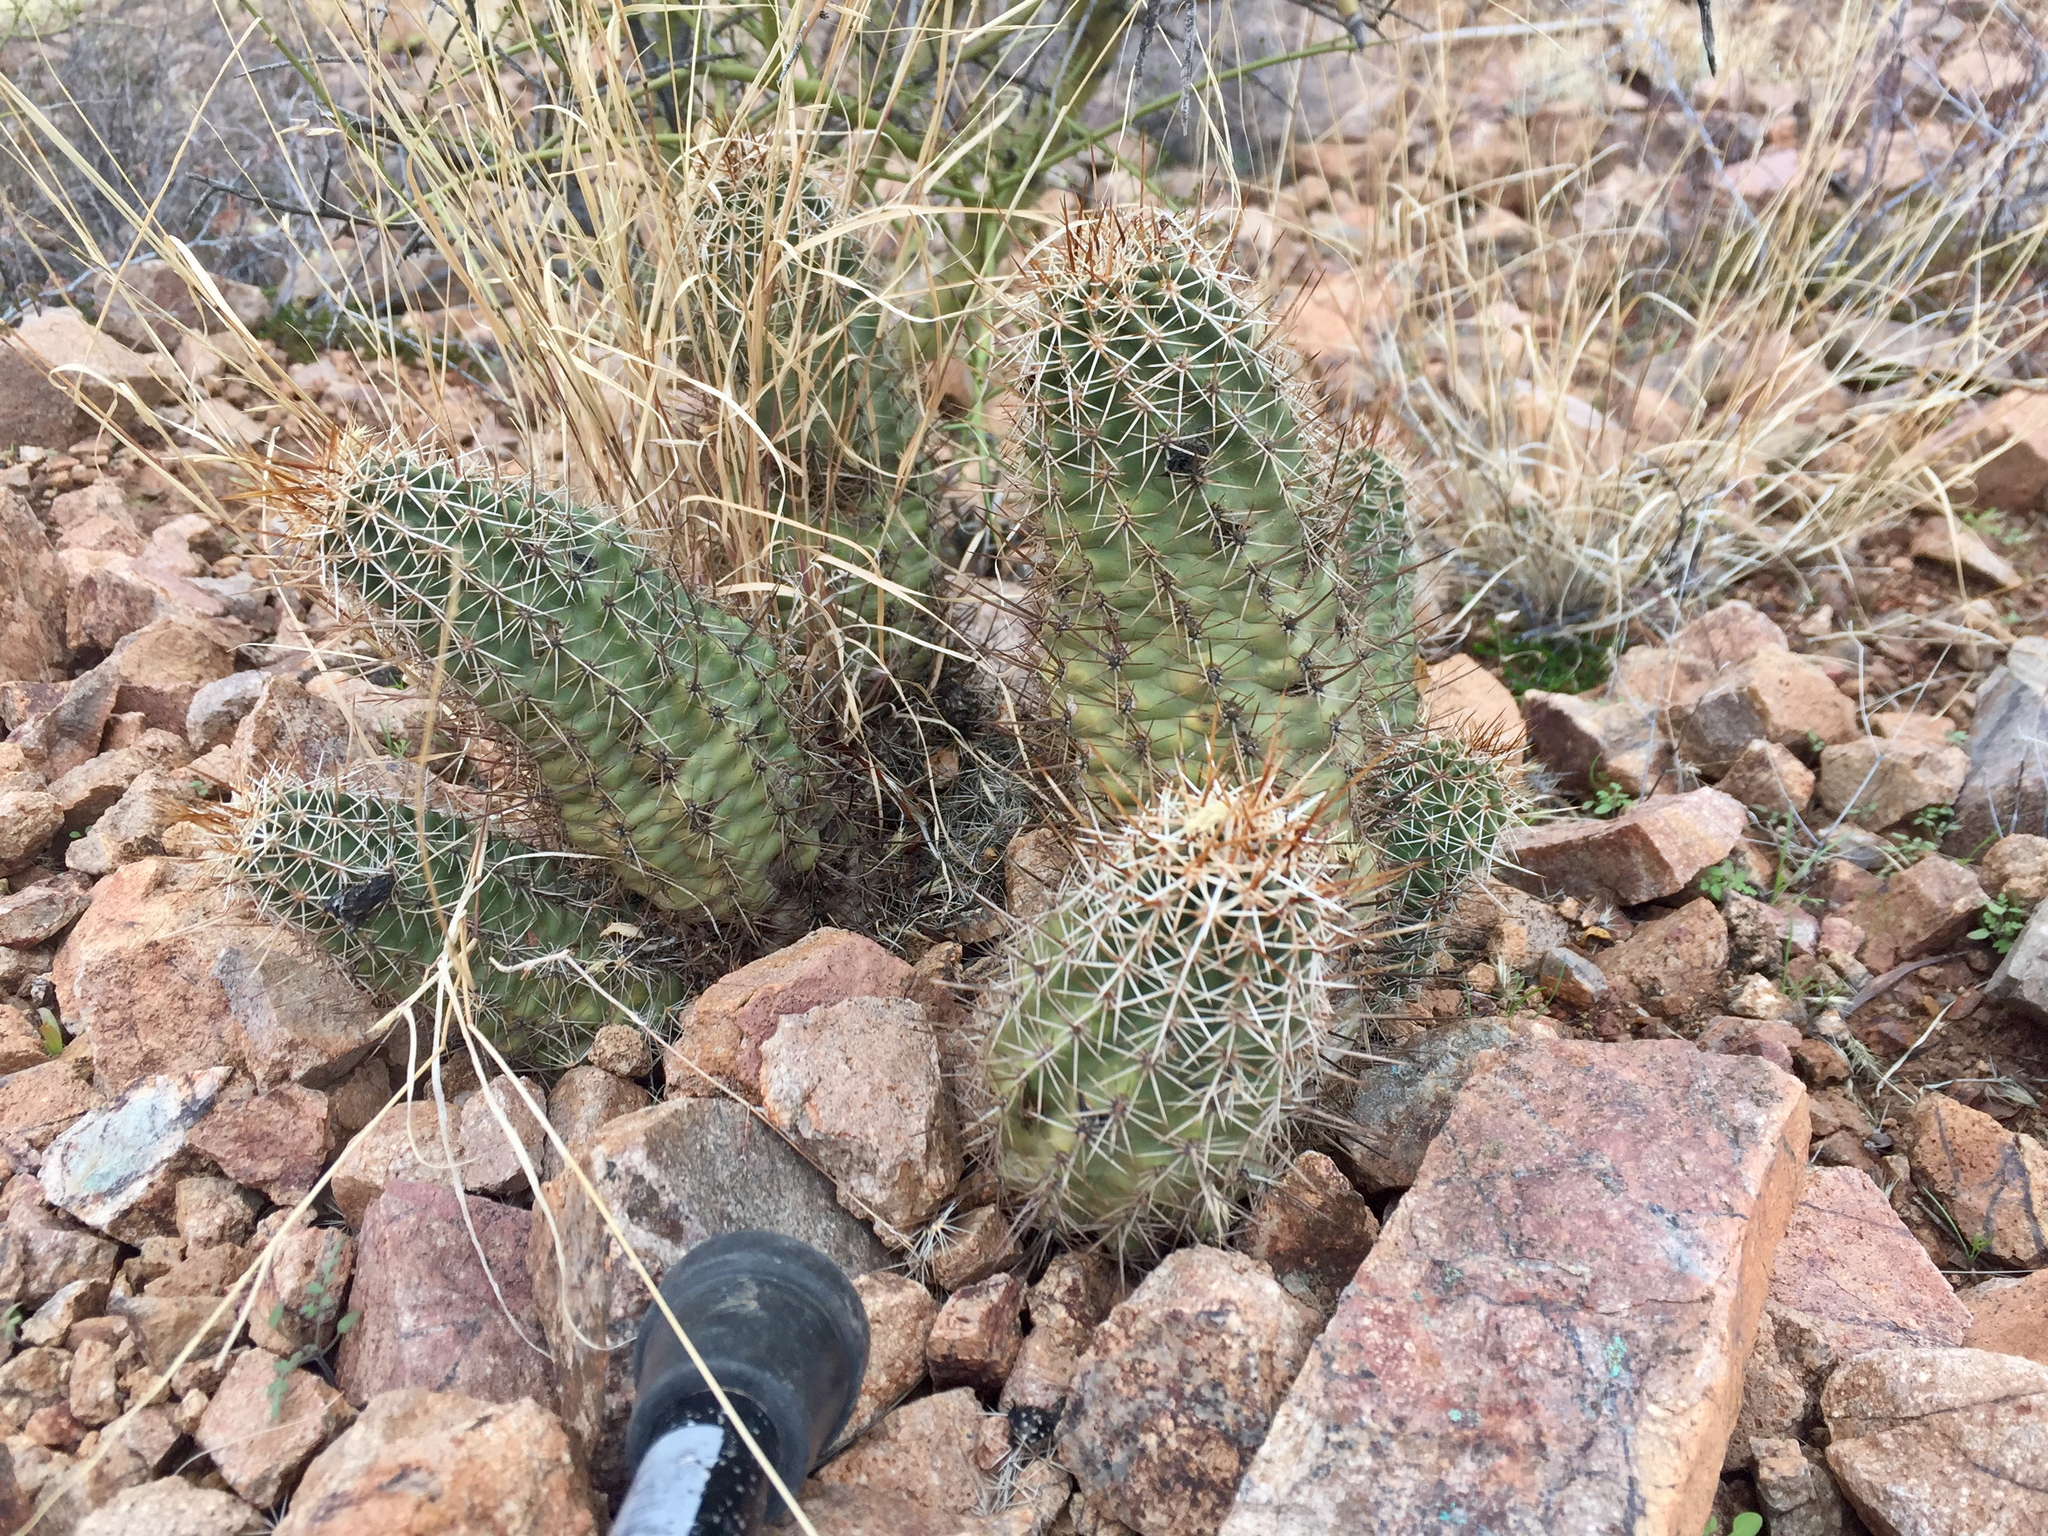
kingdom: Plantae
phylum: Tracheophyta
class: Magnoliopsida
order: Caryophyllales
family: Cactaceae
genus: Echinocereus
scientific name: Echinocereus fendleri
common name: Fendler's hedgehog cactus
